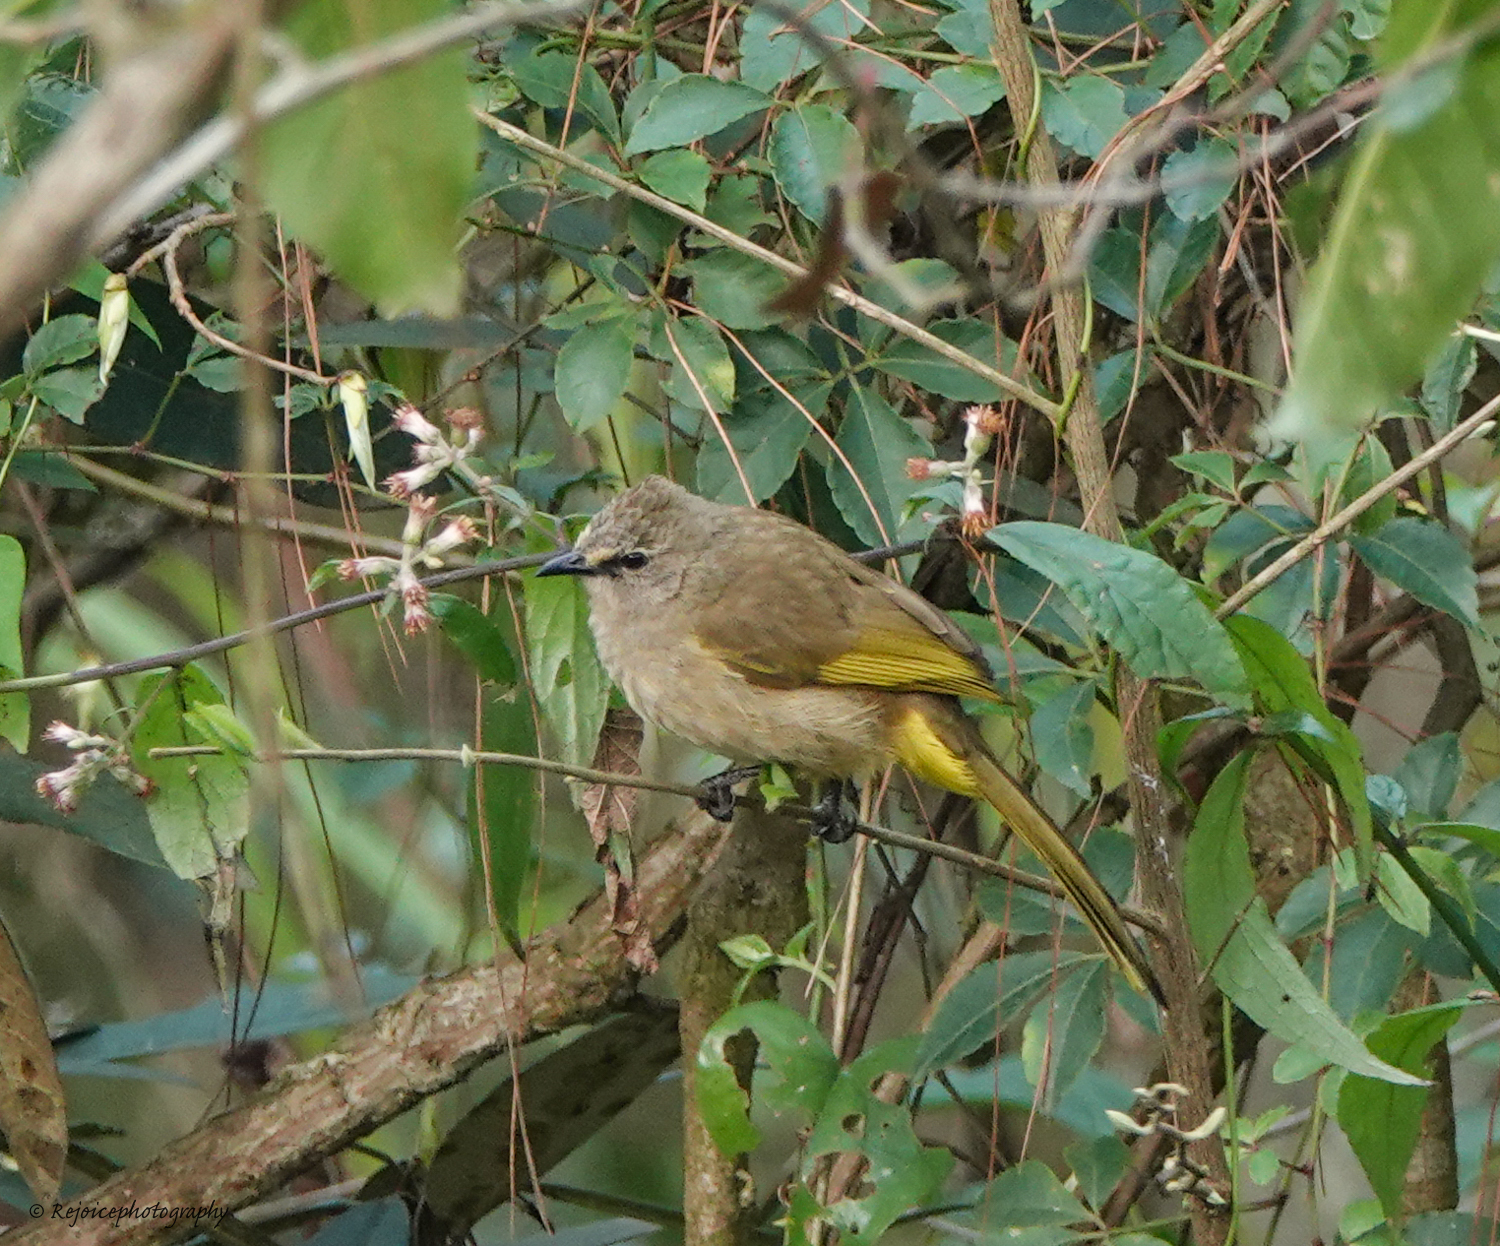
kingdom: Animalia
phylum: Chordata
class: Aves
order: Passeriformes
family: Pycnonotidae
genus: Pycnonotus
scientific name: Pycnonotus flavescens
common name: Flavescent bulbul
